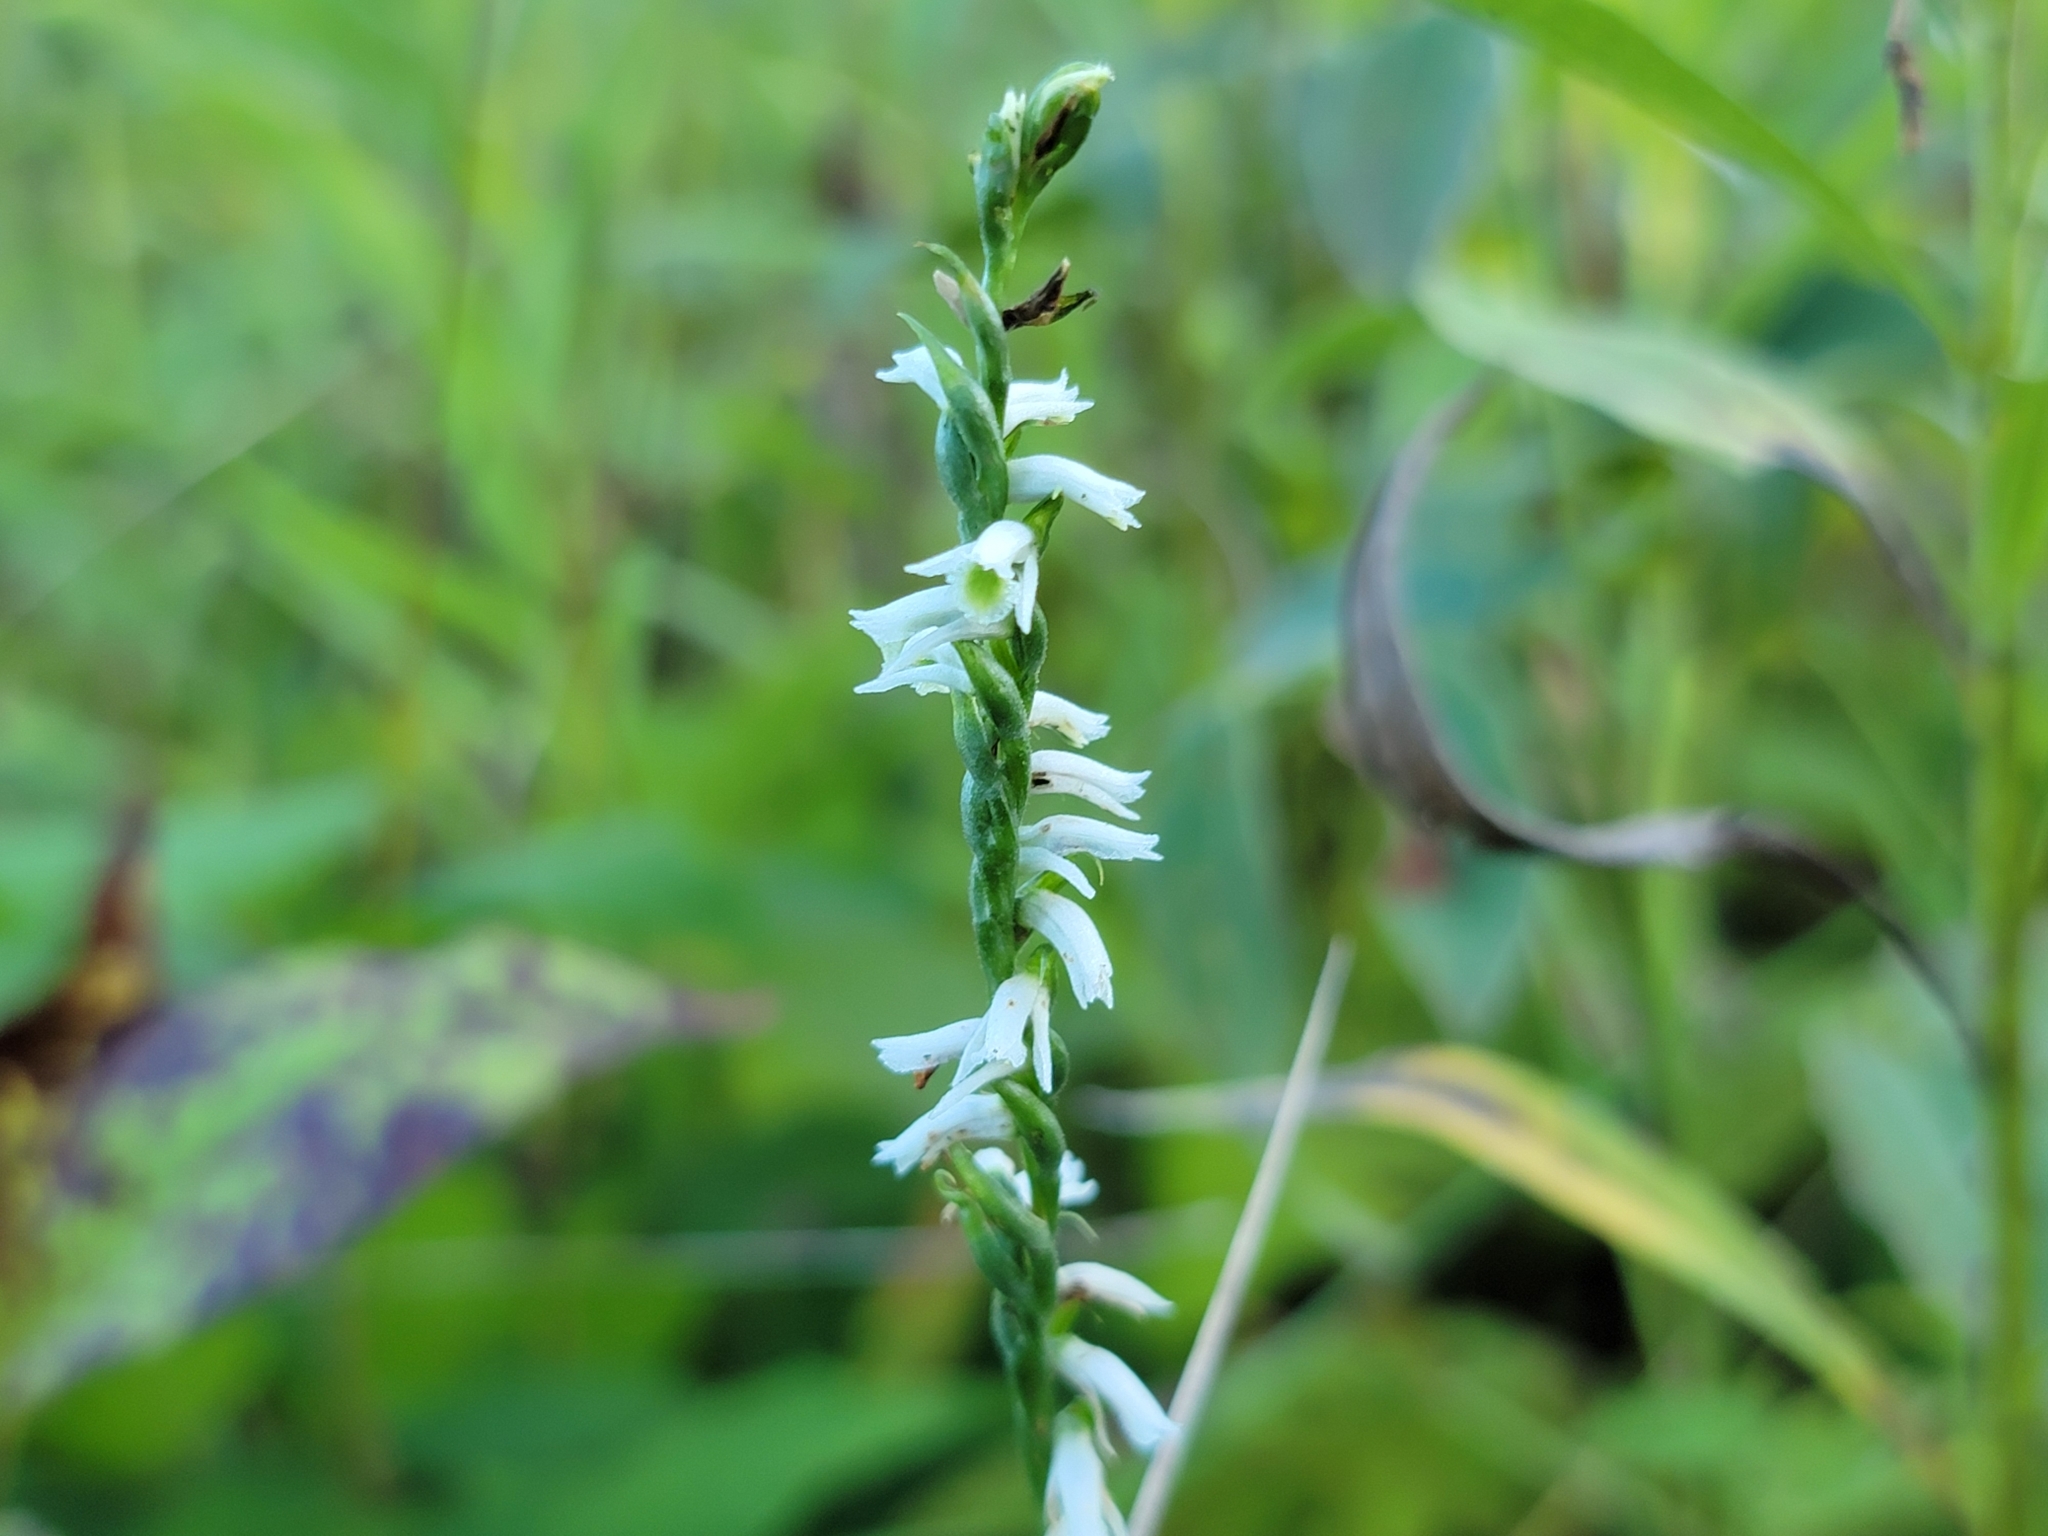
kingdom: Plantae
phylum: Tracheophyta
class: Liliopsida
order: Asparagales
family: Orchidaceae
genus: Spiranthes
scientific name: Spiranthes lacera
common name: Northern slender ladies'-tresses
